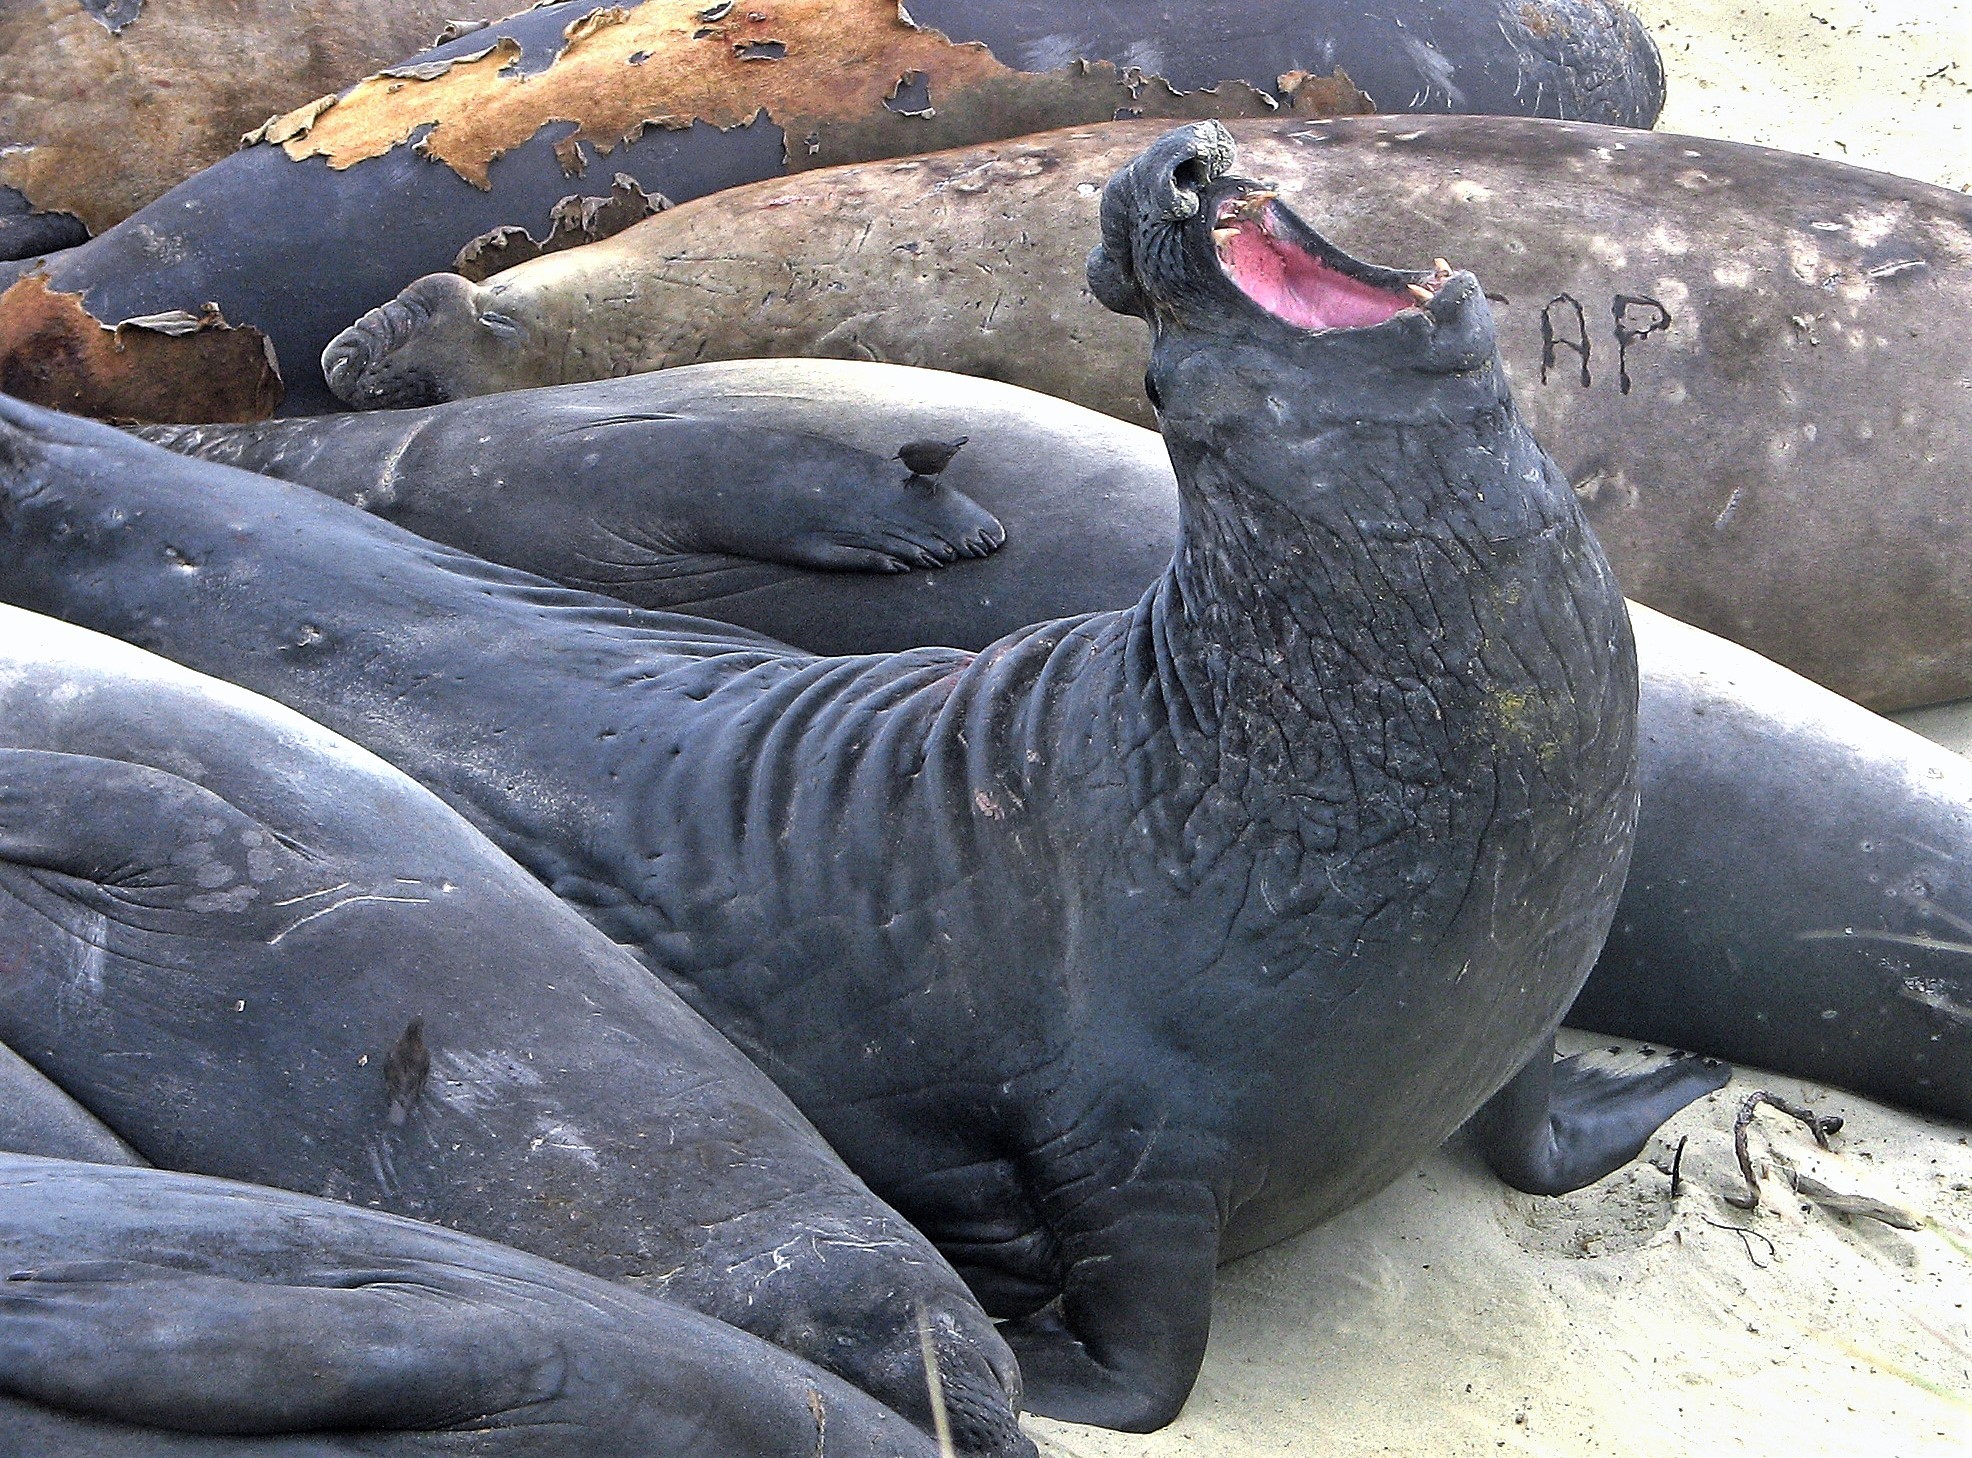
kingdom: Animalia
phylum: Chordata
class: Mammalia
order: Carnivora
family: Phocidae
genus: Mirounga
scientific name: Mirounga leonina
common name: Southern elephant seal
